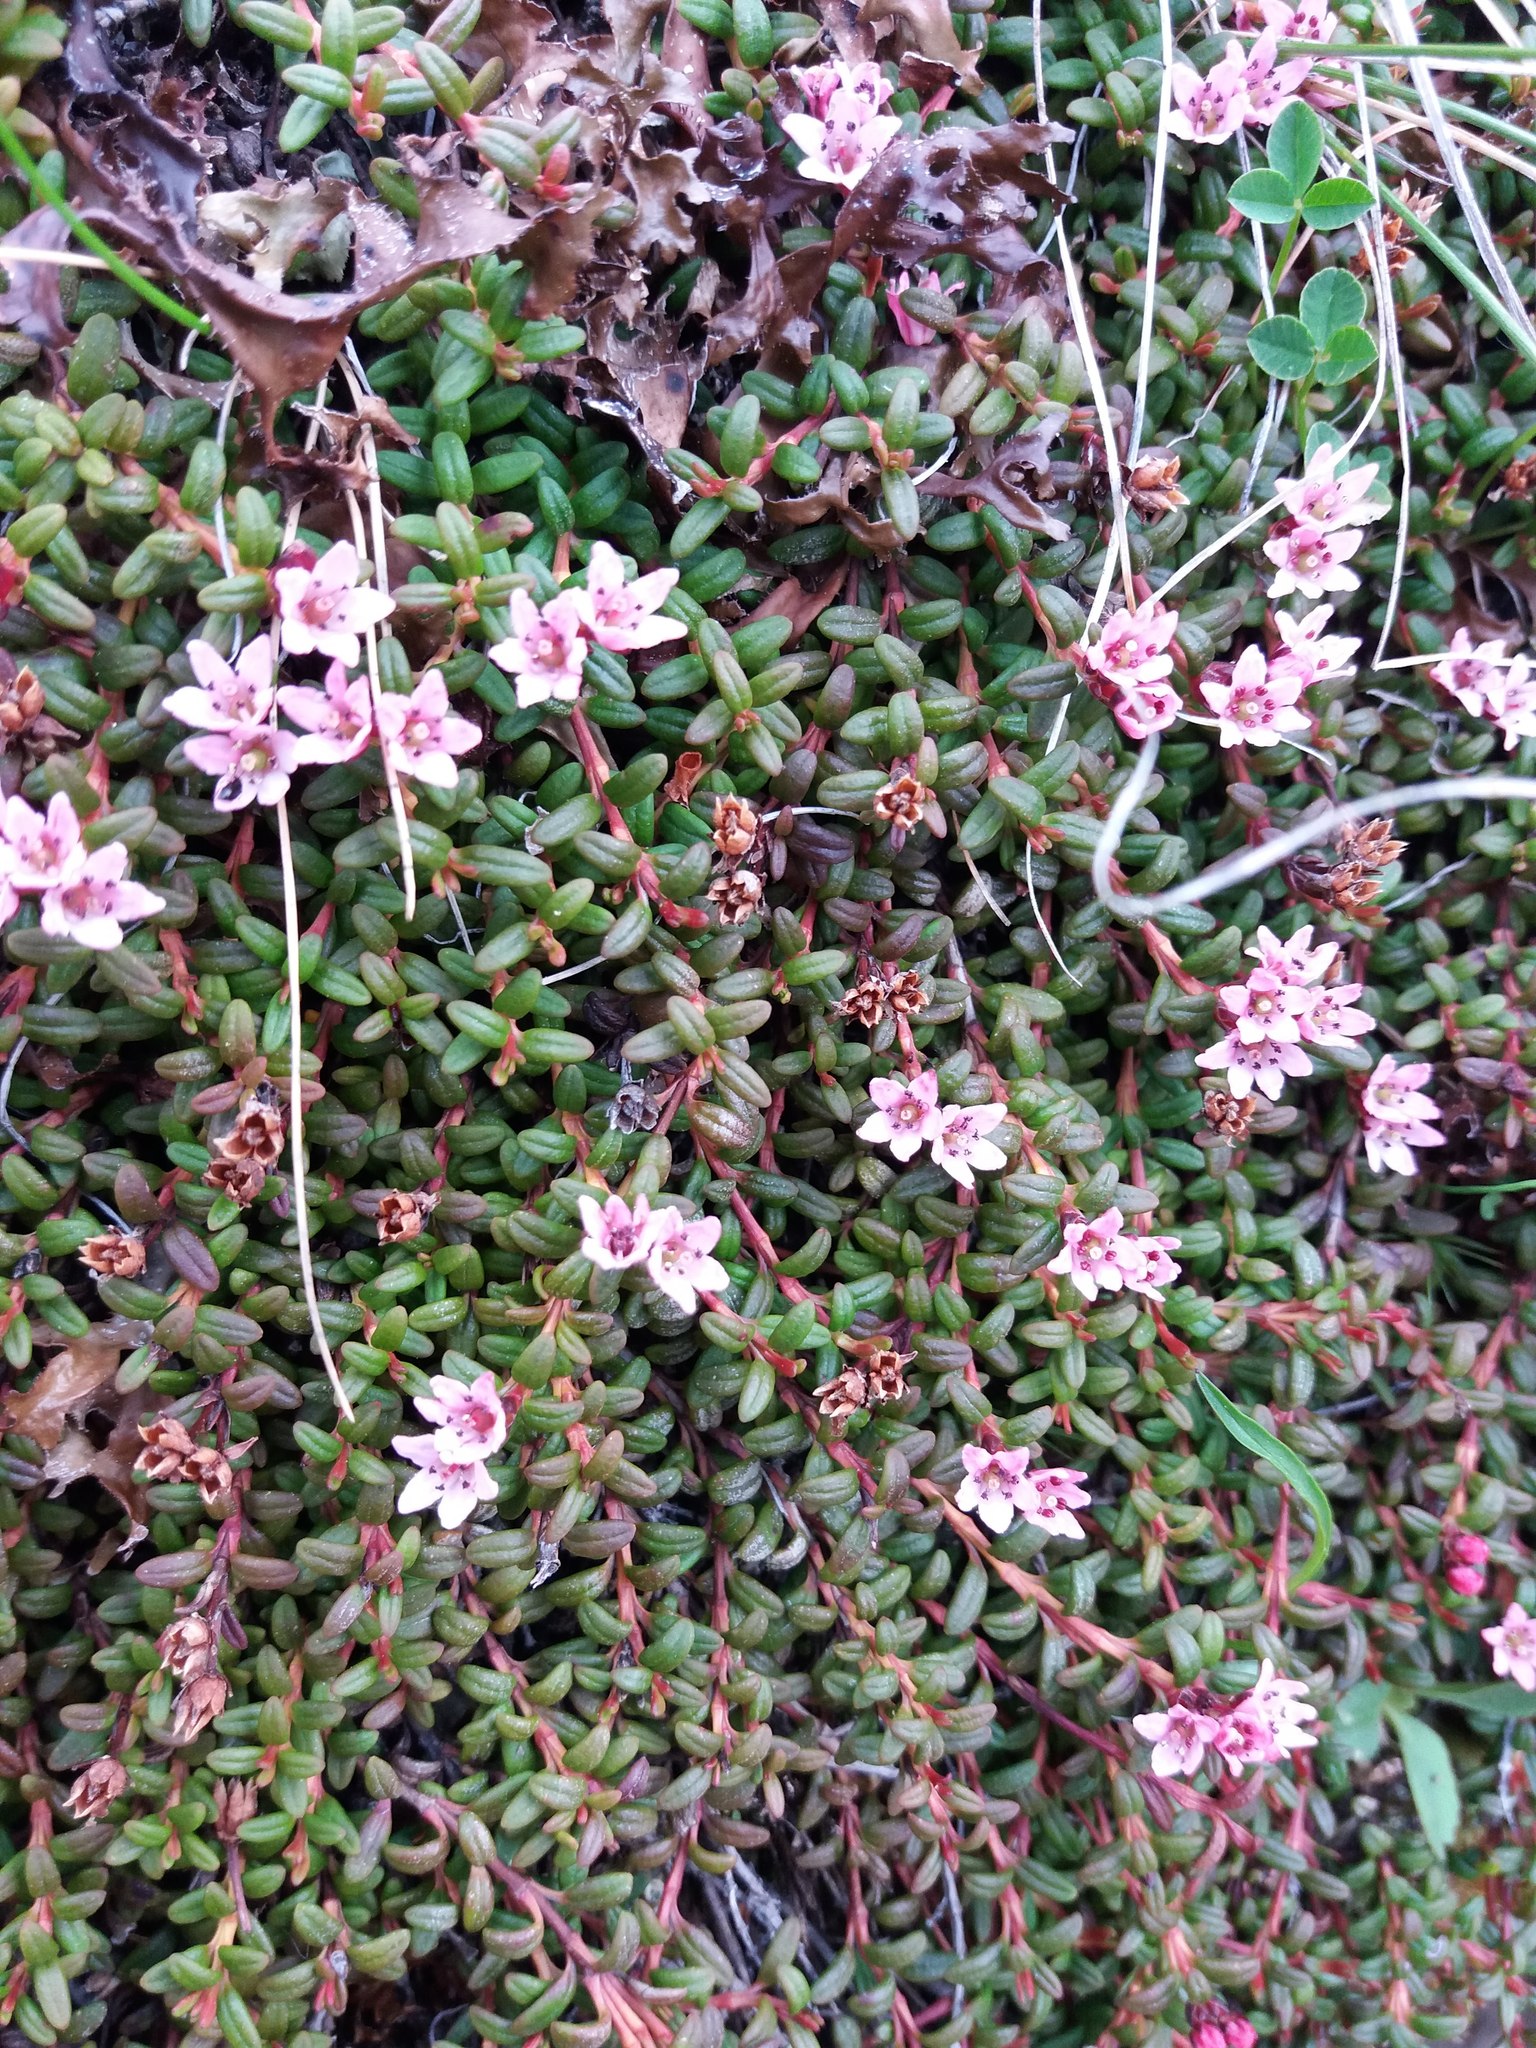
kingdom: Plantae
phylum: Tracheophyta
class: Magnoliopsida
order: Ericales
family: Ericaceae
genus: Kalmia
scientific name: Kalmia procumbens
